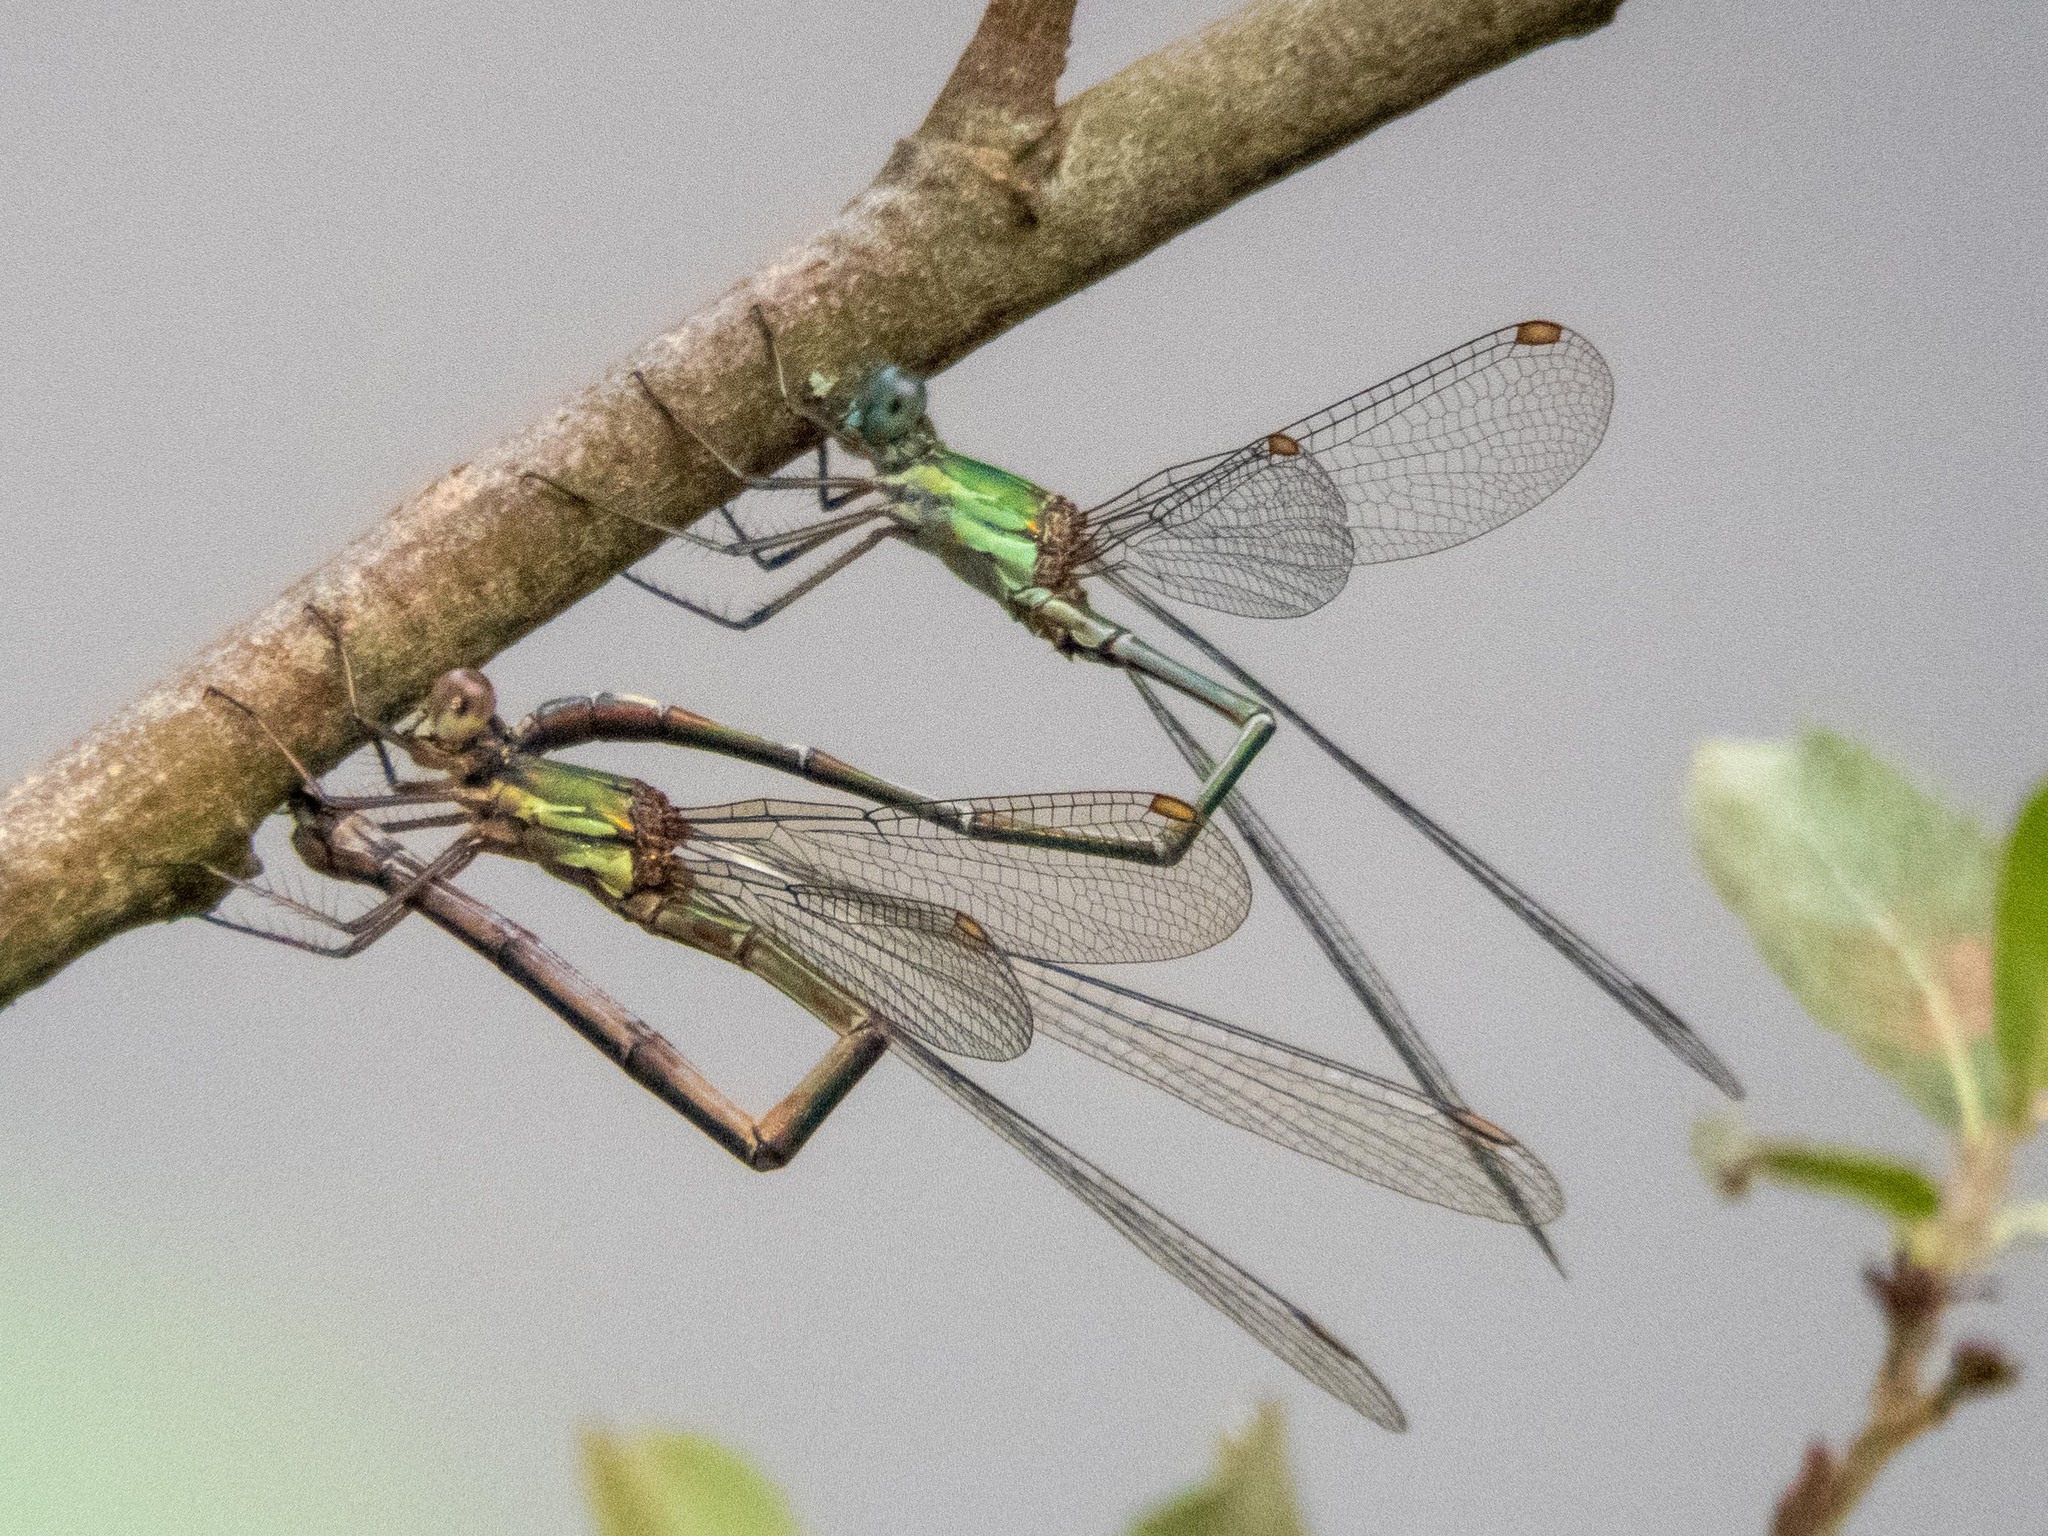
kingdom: Animalia
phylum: Arthropoda
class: Insecta
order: Odonata
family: Lestidae
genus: Chalcolestes
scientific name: Chalcolestes viridis
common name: Green emerald damselfly
